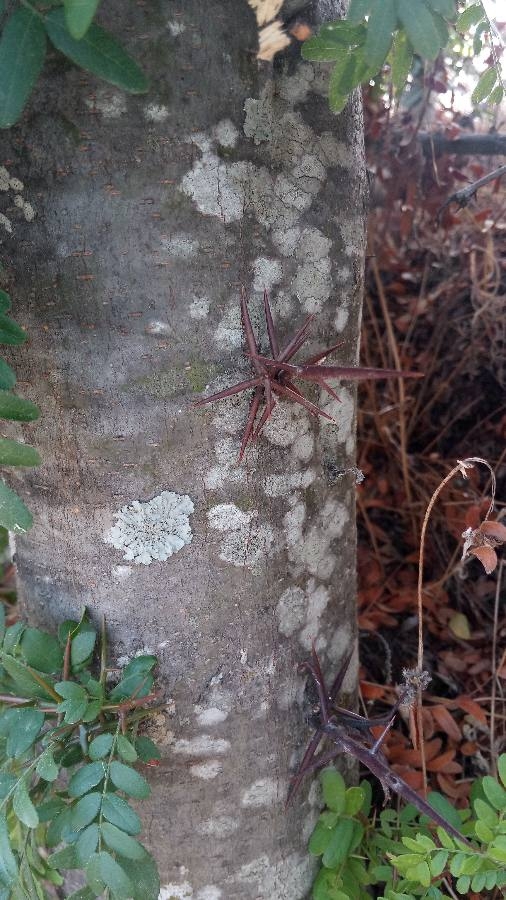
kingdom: Plantae
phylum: Tracheophyta
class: Magnoliopsida
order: Fabales
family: Fabaceae
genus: Gleditsia
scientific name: Gleditsia triacanthos
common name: Common honeylocust
